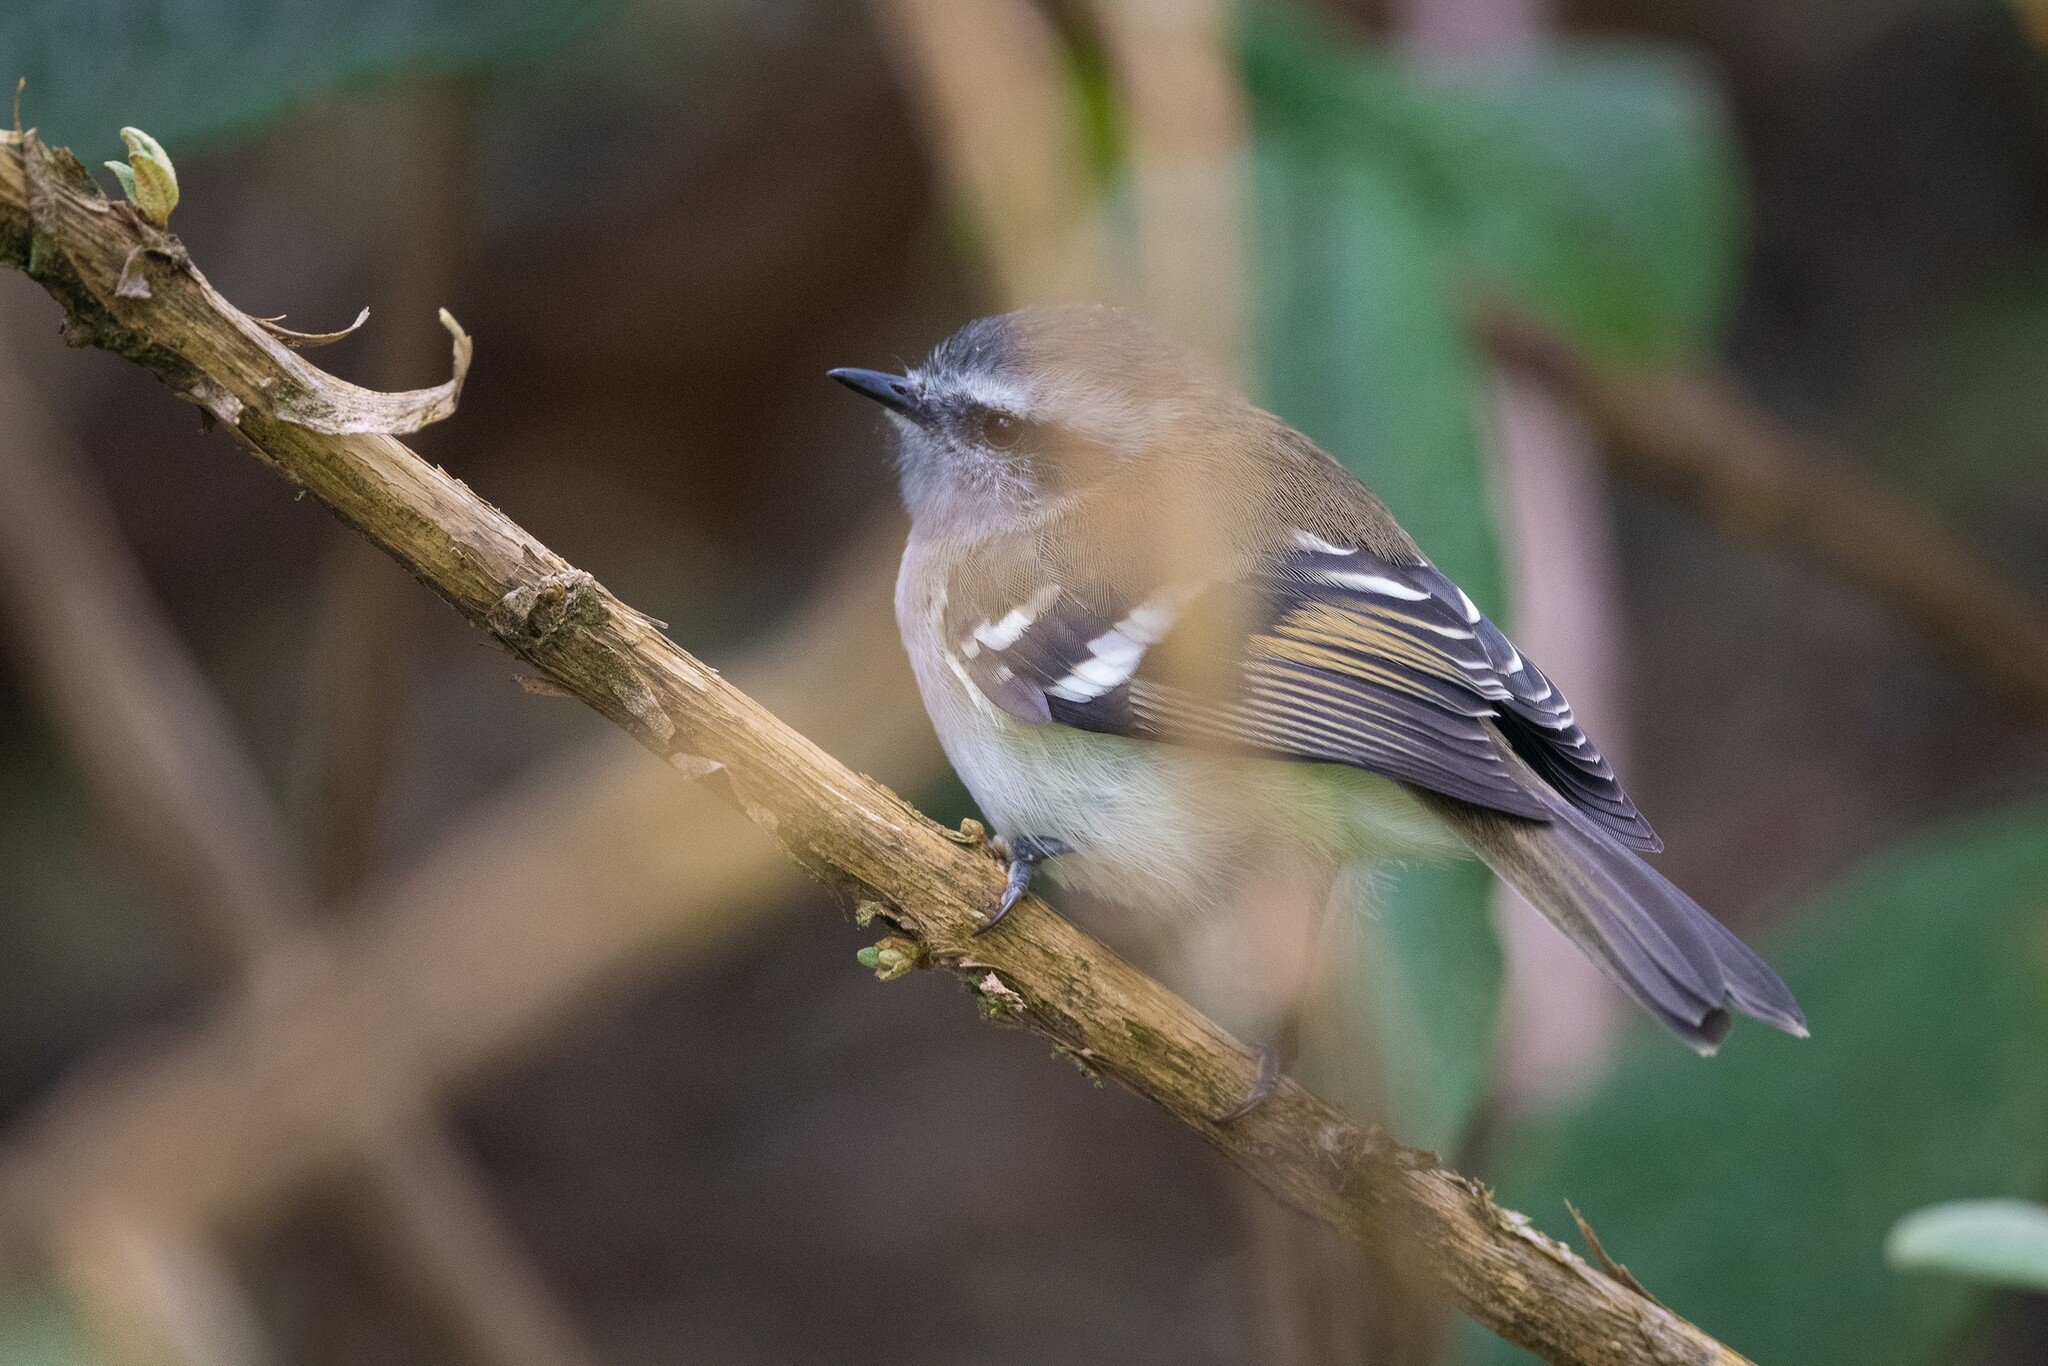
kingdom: Animalia
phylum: Chordata
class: Aves
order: Passeriformes
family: Tyrannidae
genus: Mecocerculus
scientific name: Mecocerculus stictopterus
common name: White-banded tyrannulet
